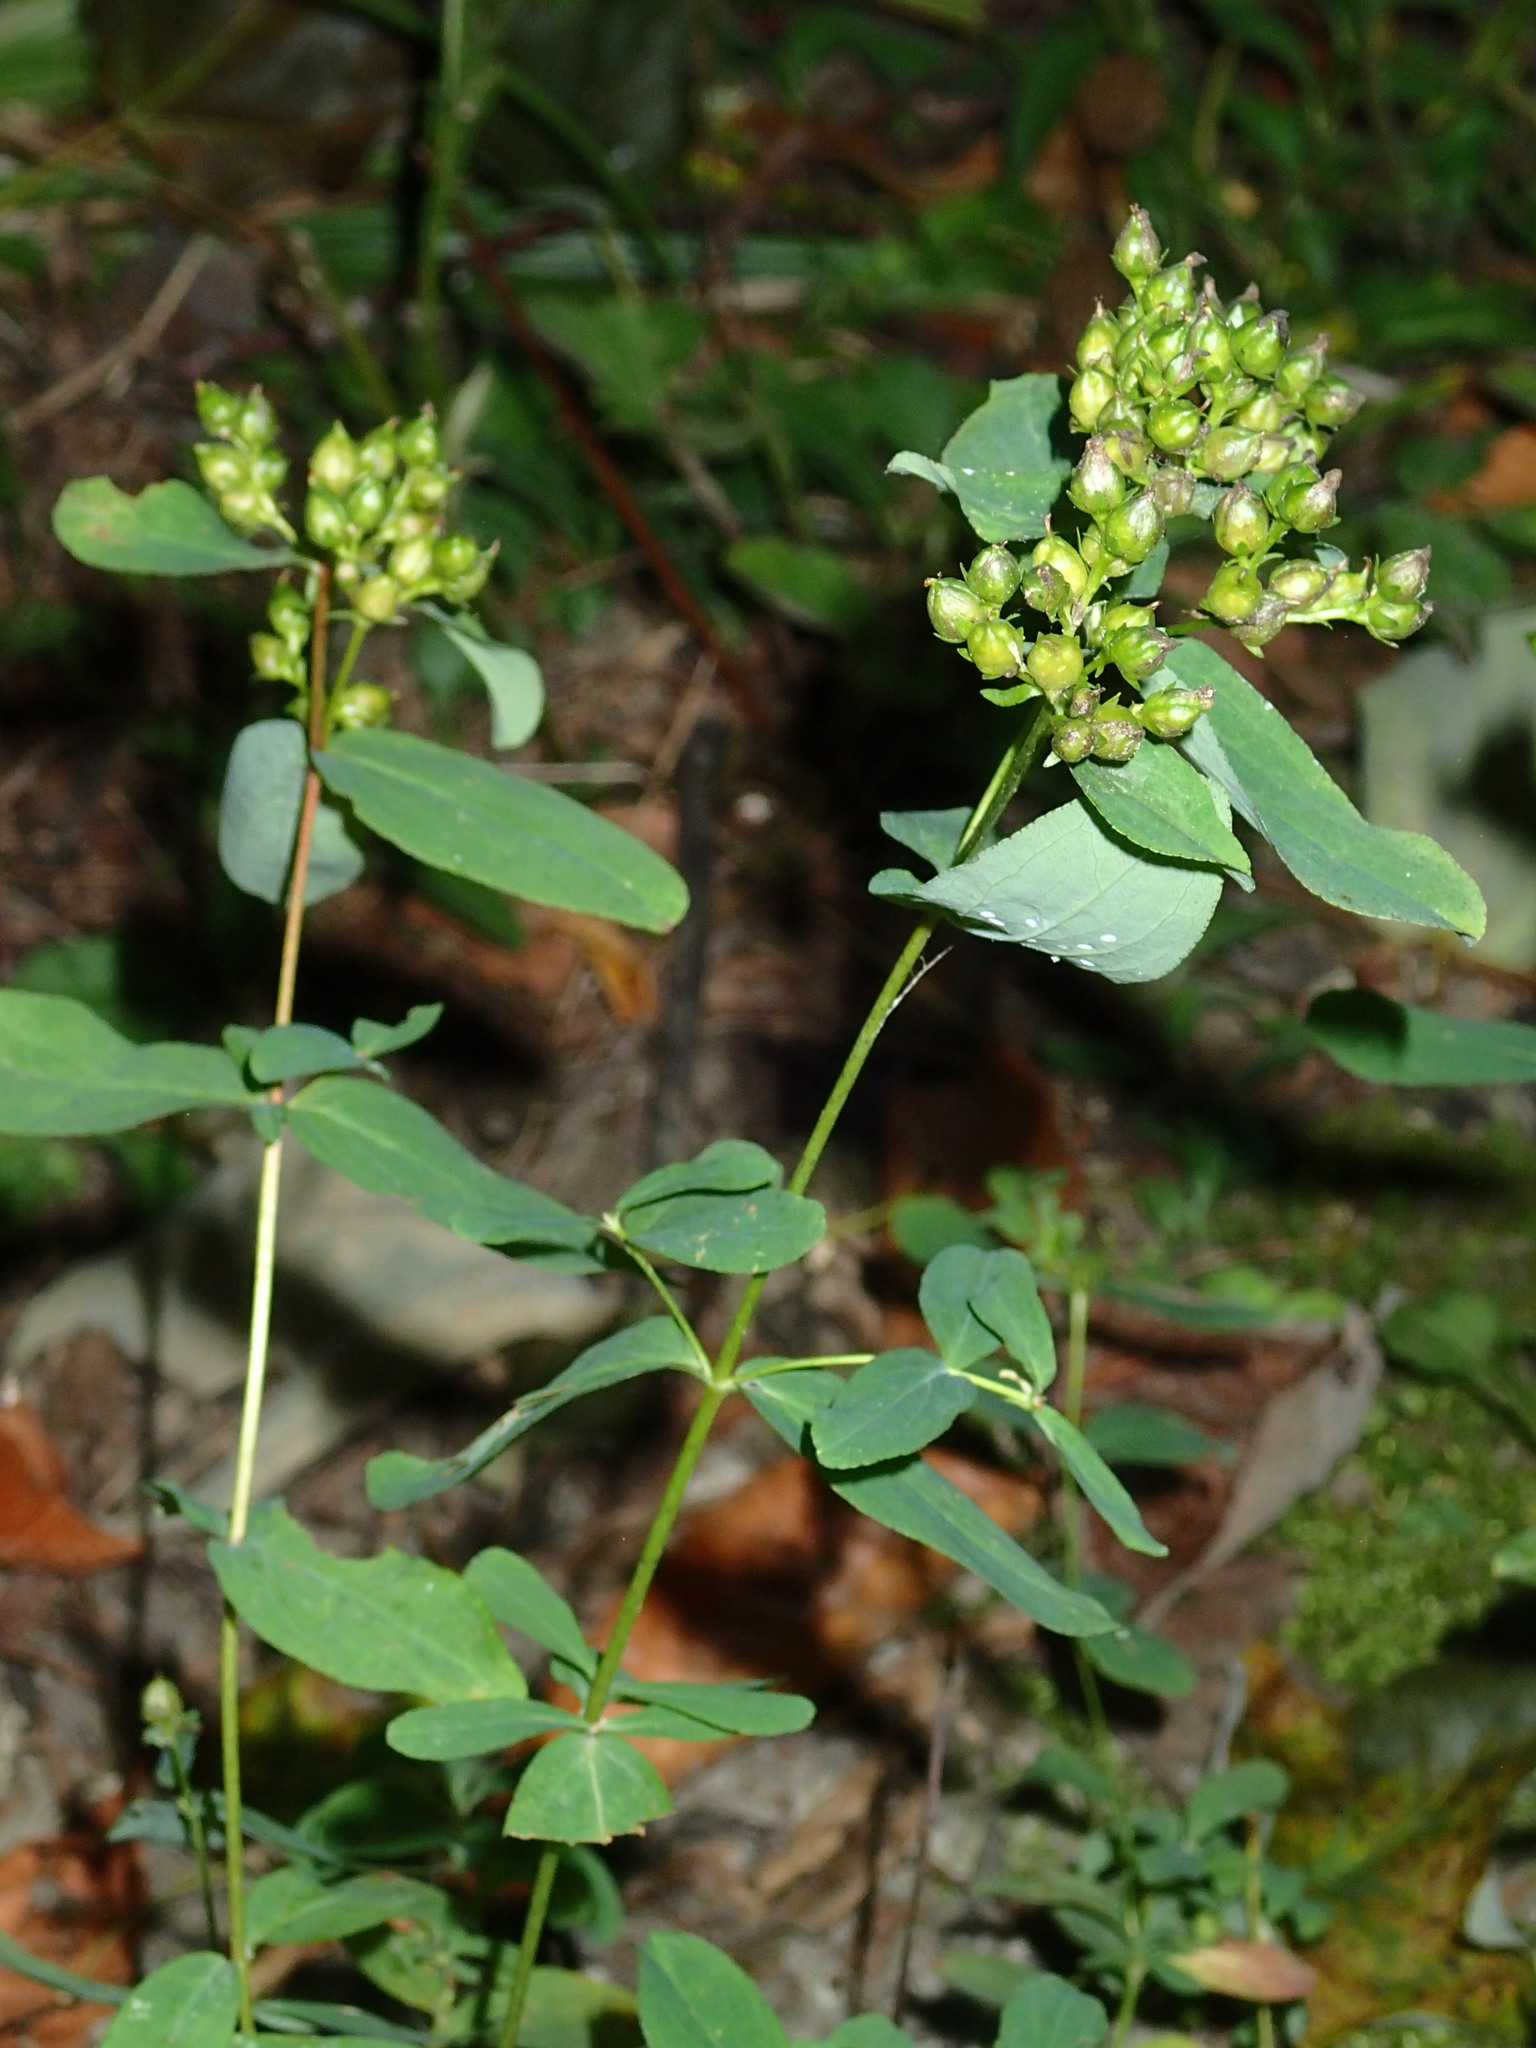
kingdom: Plantae
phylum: Tracheophyta
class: Magnoliopsida
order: Malpighiales
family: Hypericaceae
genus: Hypericum
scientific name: Hypericum punctatum
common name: Spotted st. john's-wort
